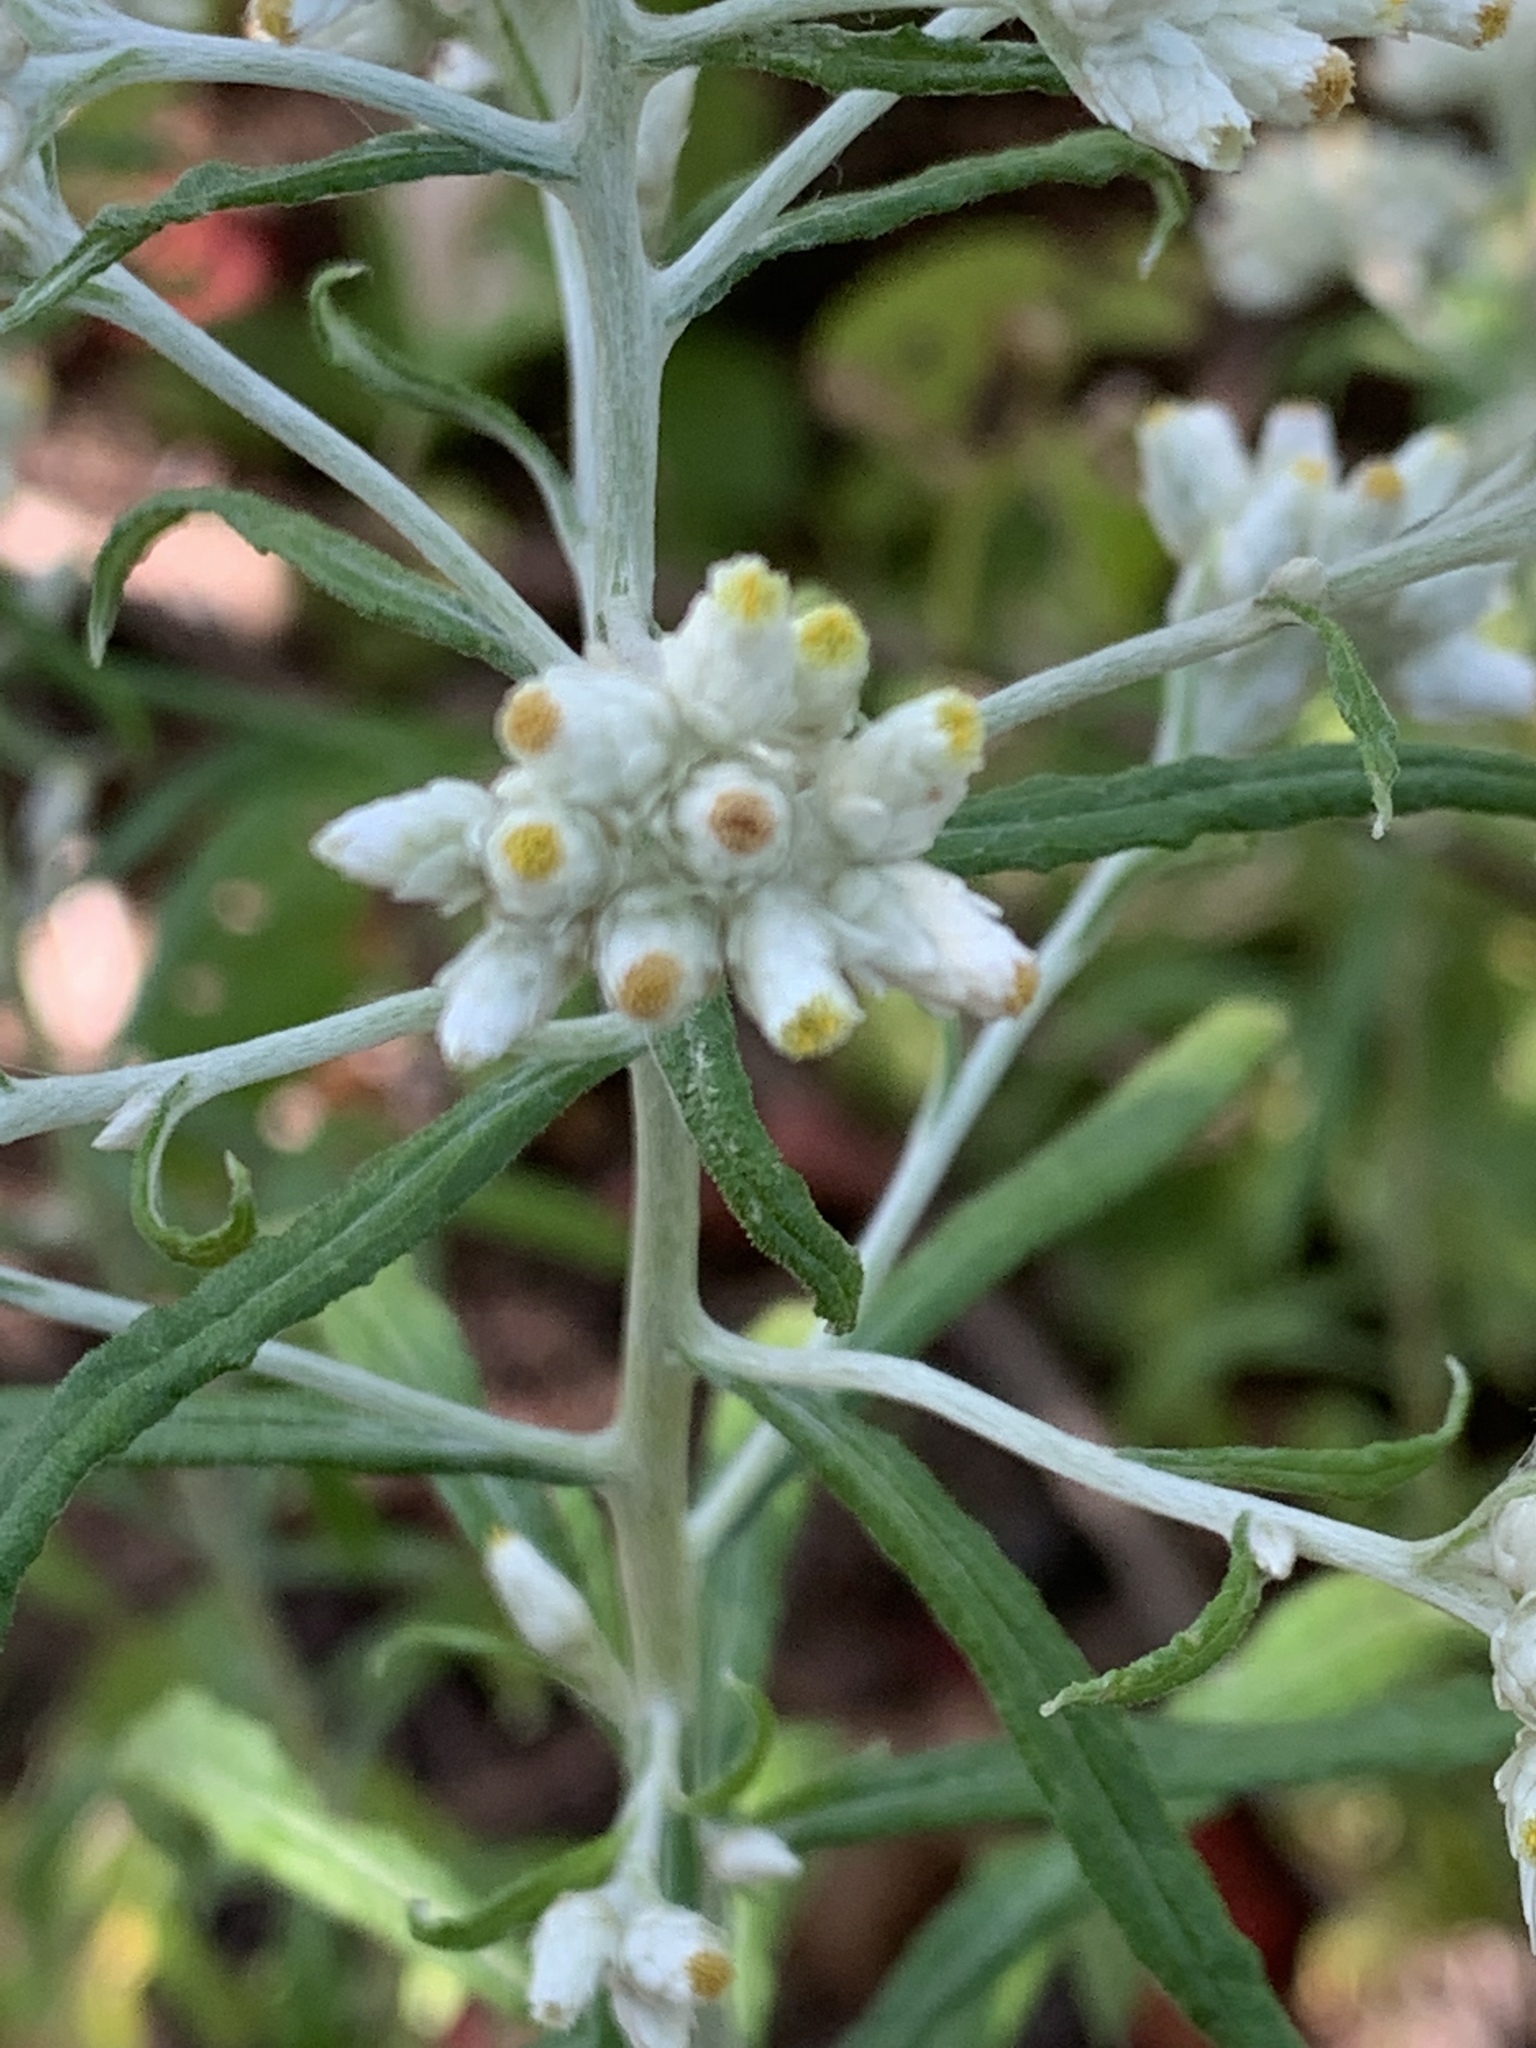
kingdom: Plantae
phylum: Tracheophyta
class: Magnoliopsida
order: Asterales
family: Asteraceae
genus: Pseudognaphalium
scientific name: Pseudognaphalium obtusifolium
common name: Eastern rabbit-tobacco
